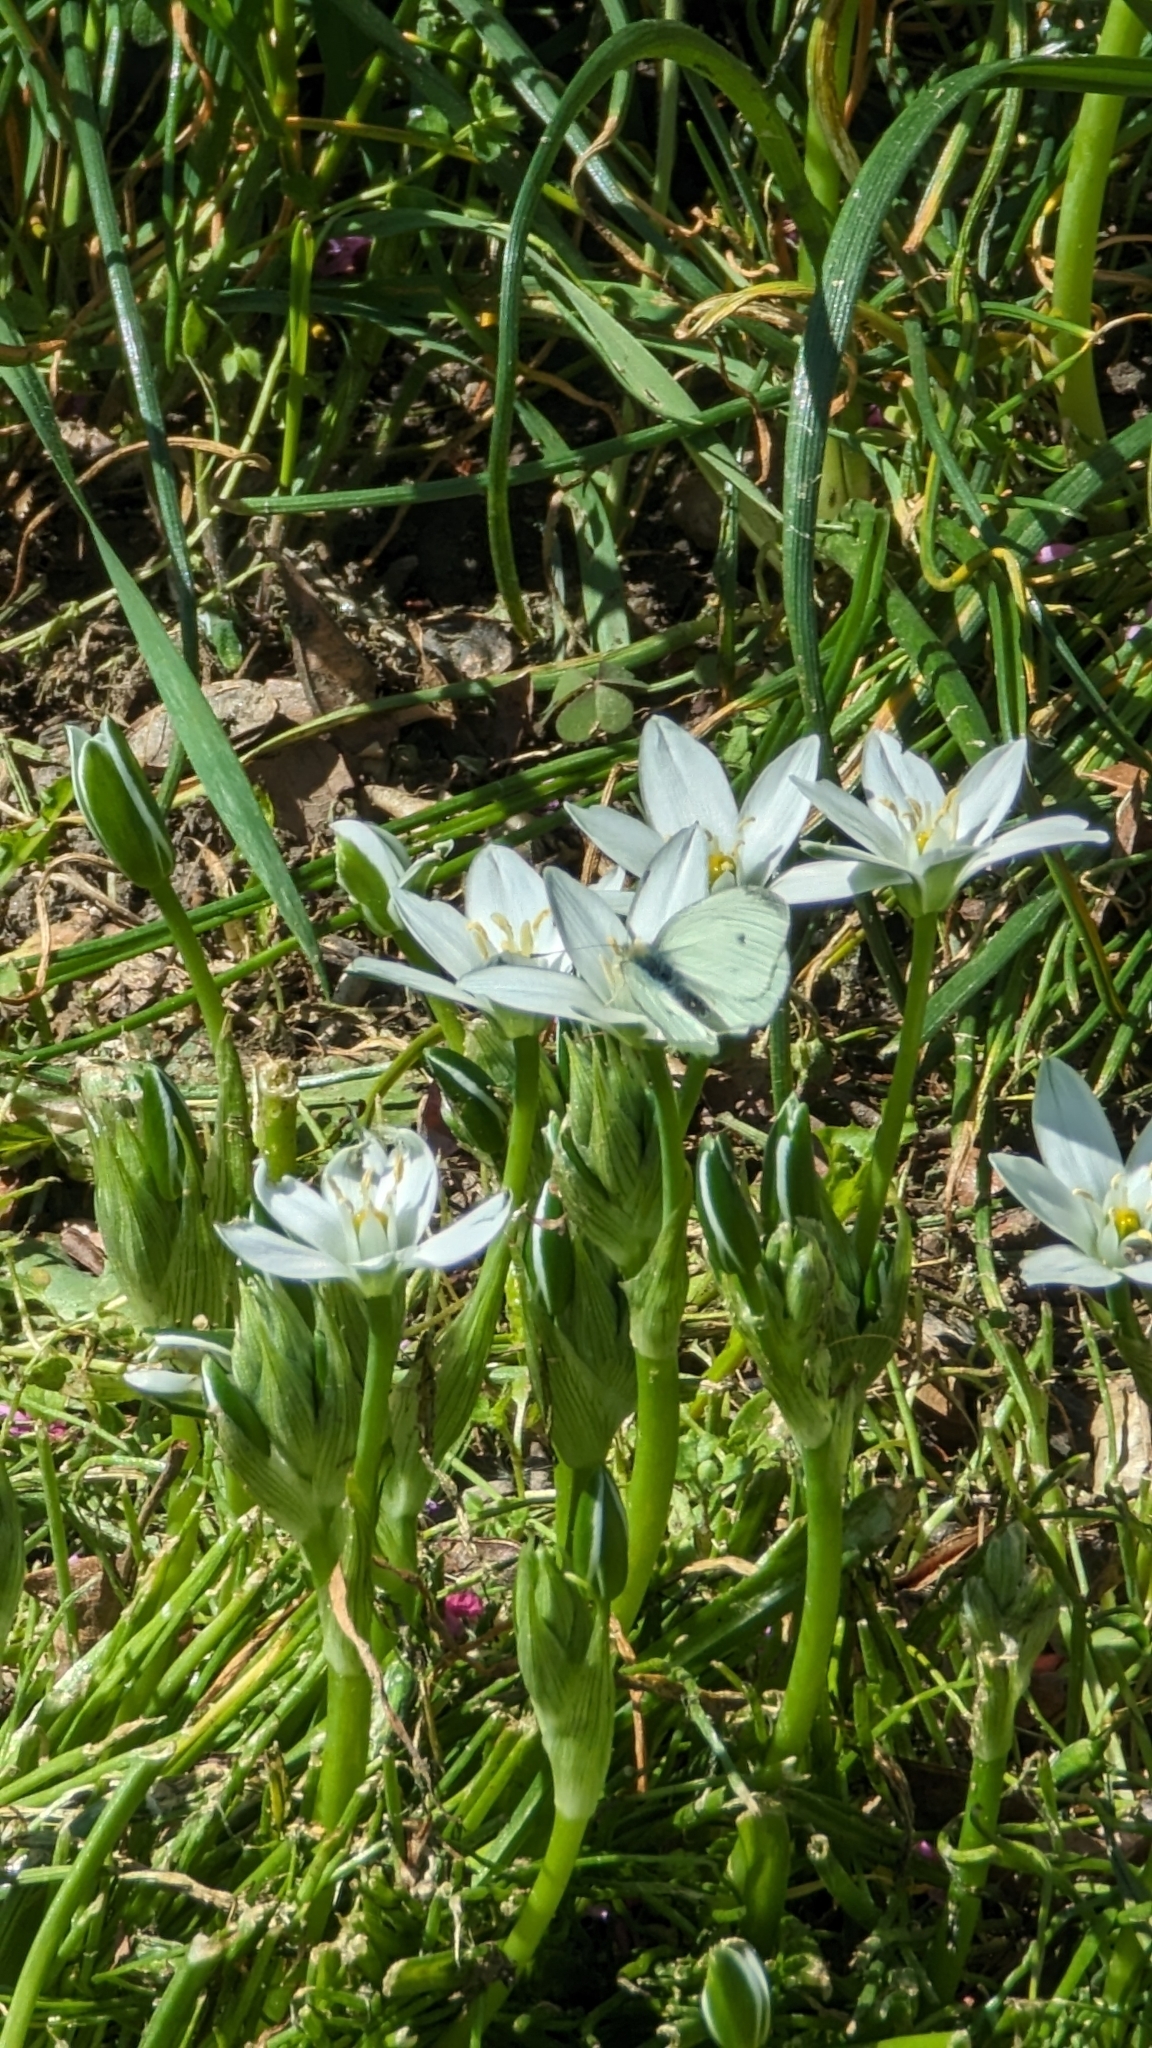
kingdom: Animalia
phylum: Arthropoda
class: Insecta
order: Lepidoptera
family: Pieridae
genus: Pieris
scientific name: Pieris rapae
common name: Small white
